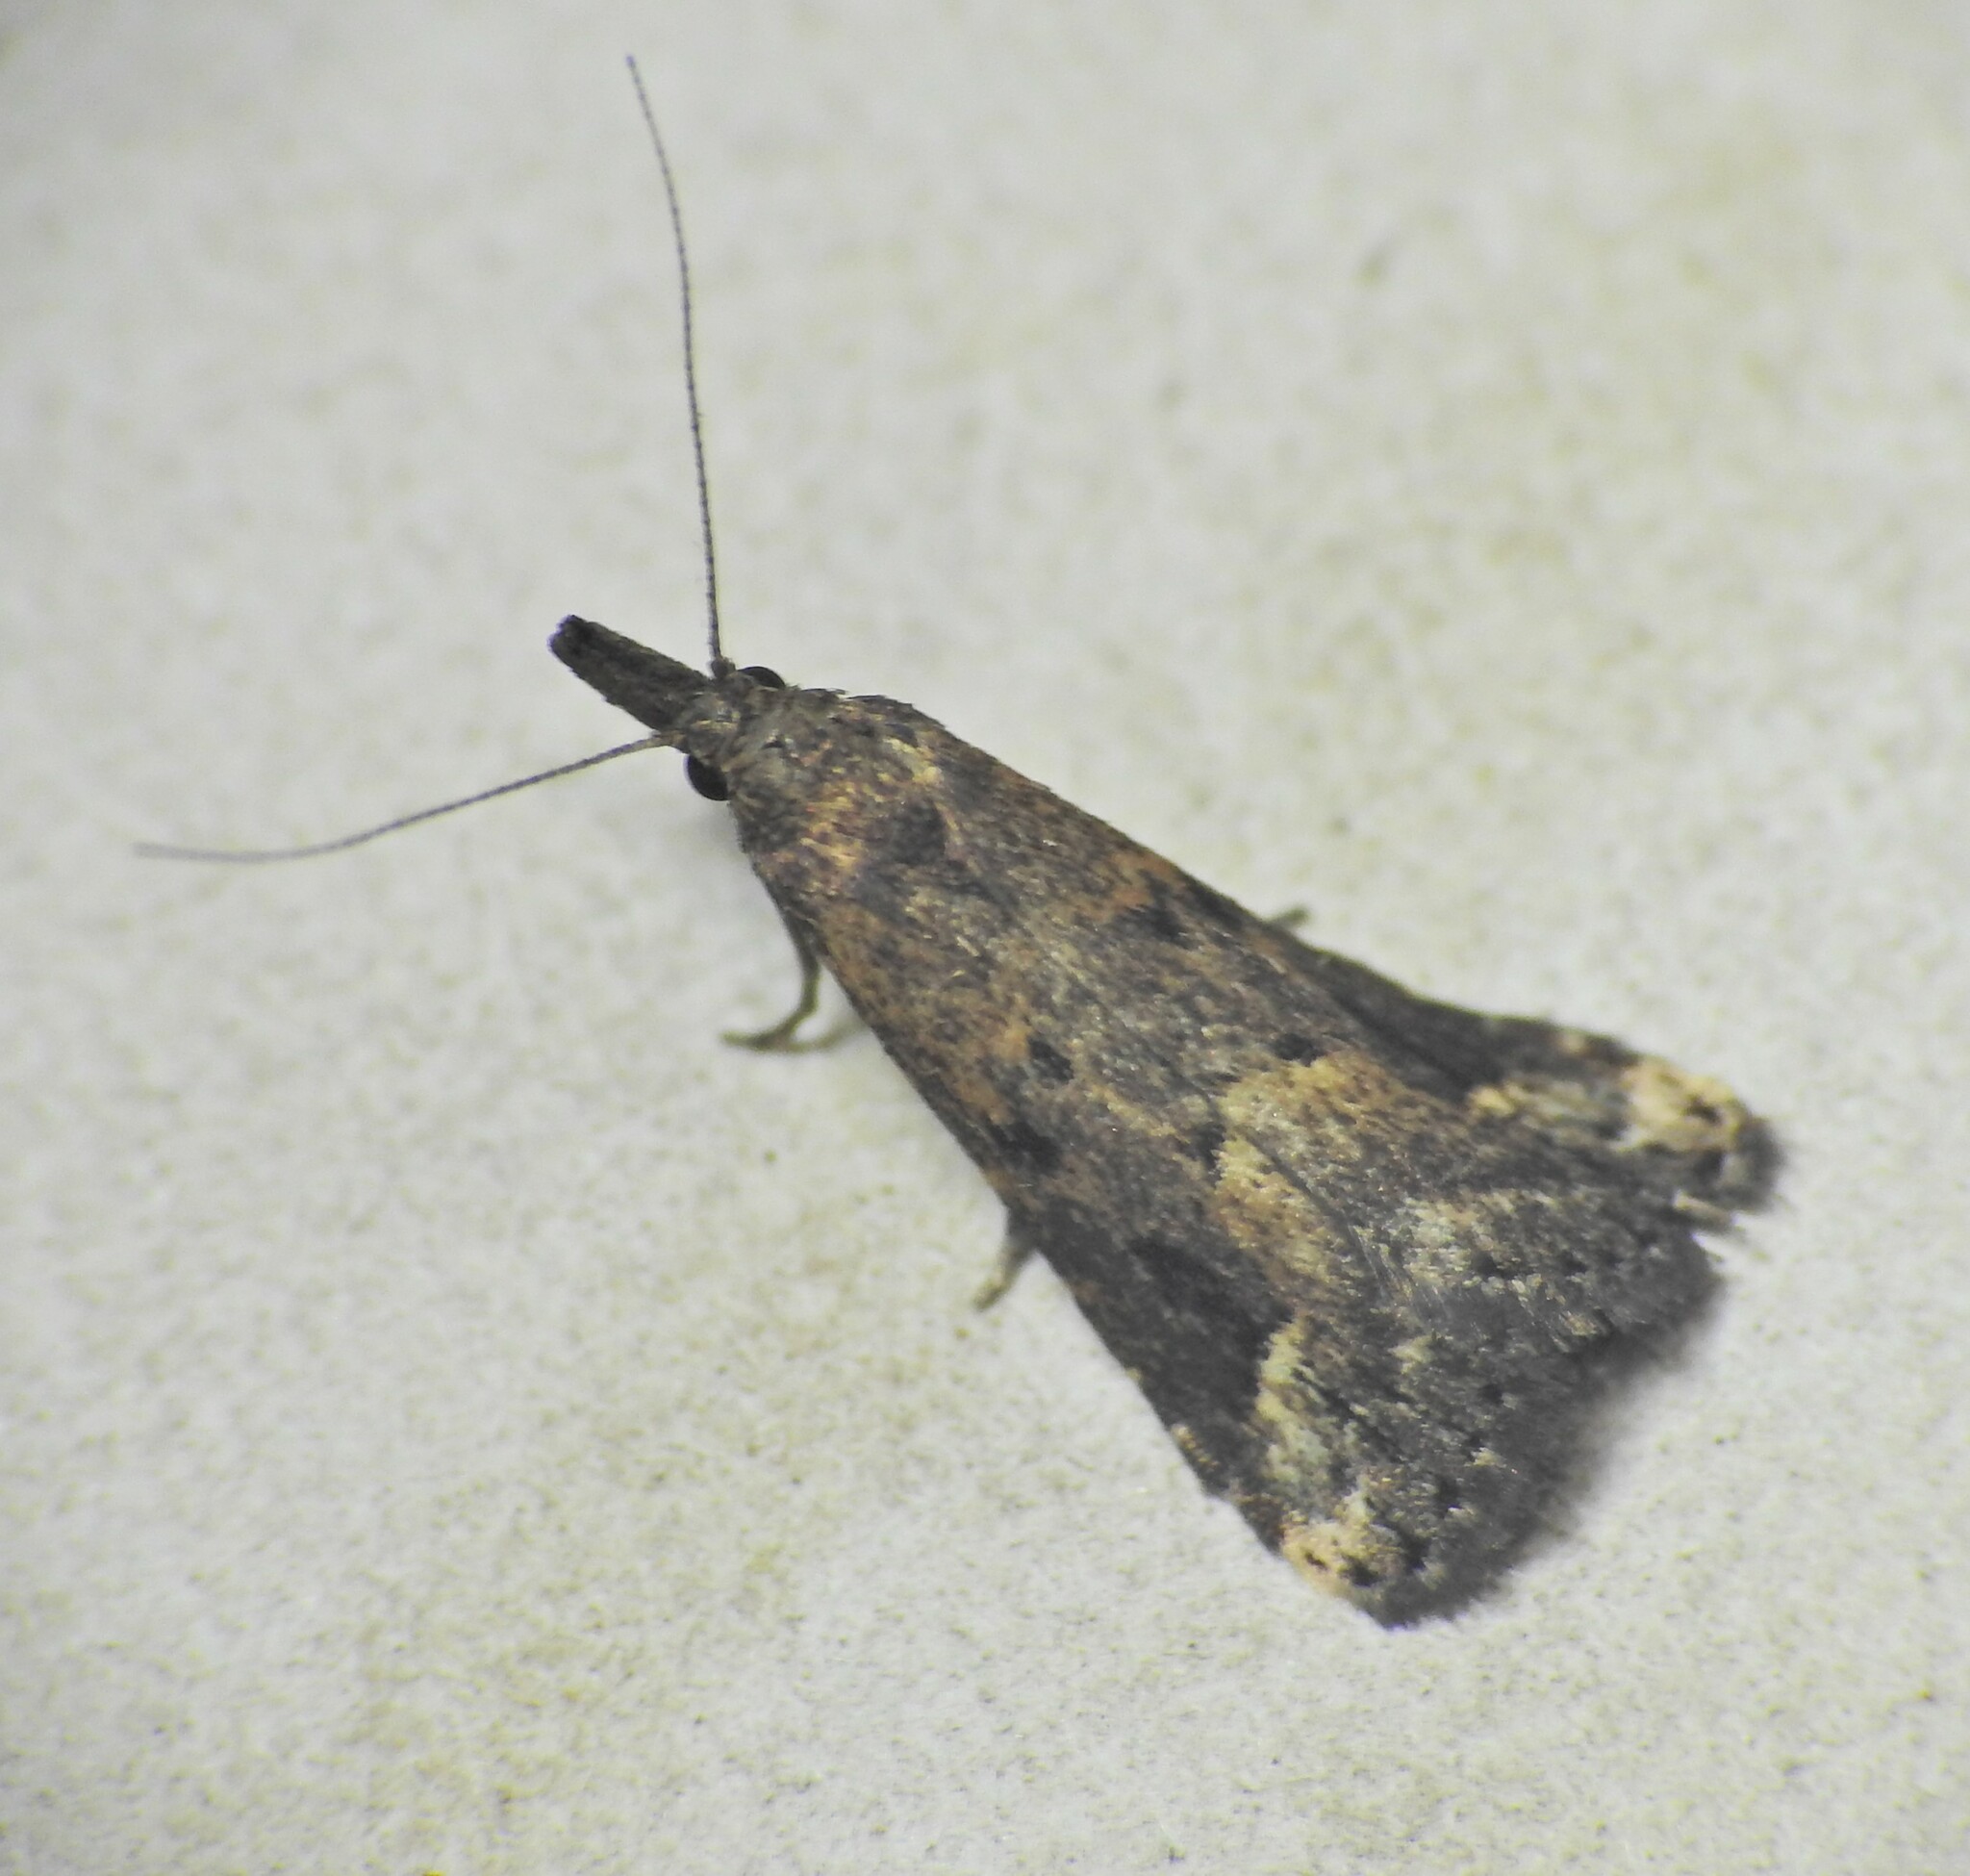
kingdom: Animalia
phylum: Arthropoda
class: Insecta
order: Lepidoptera
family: Erebidae
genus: Schrankia
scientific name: Schrankia capnophanes
